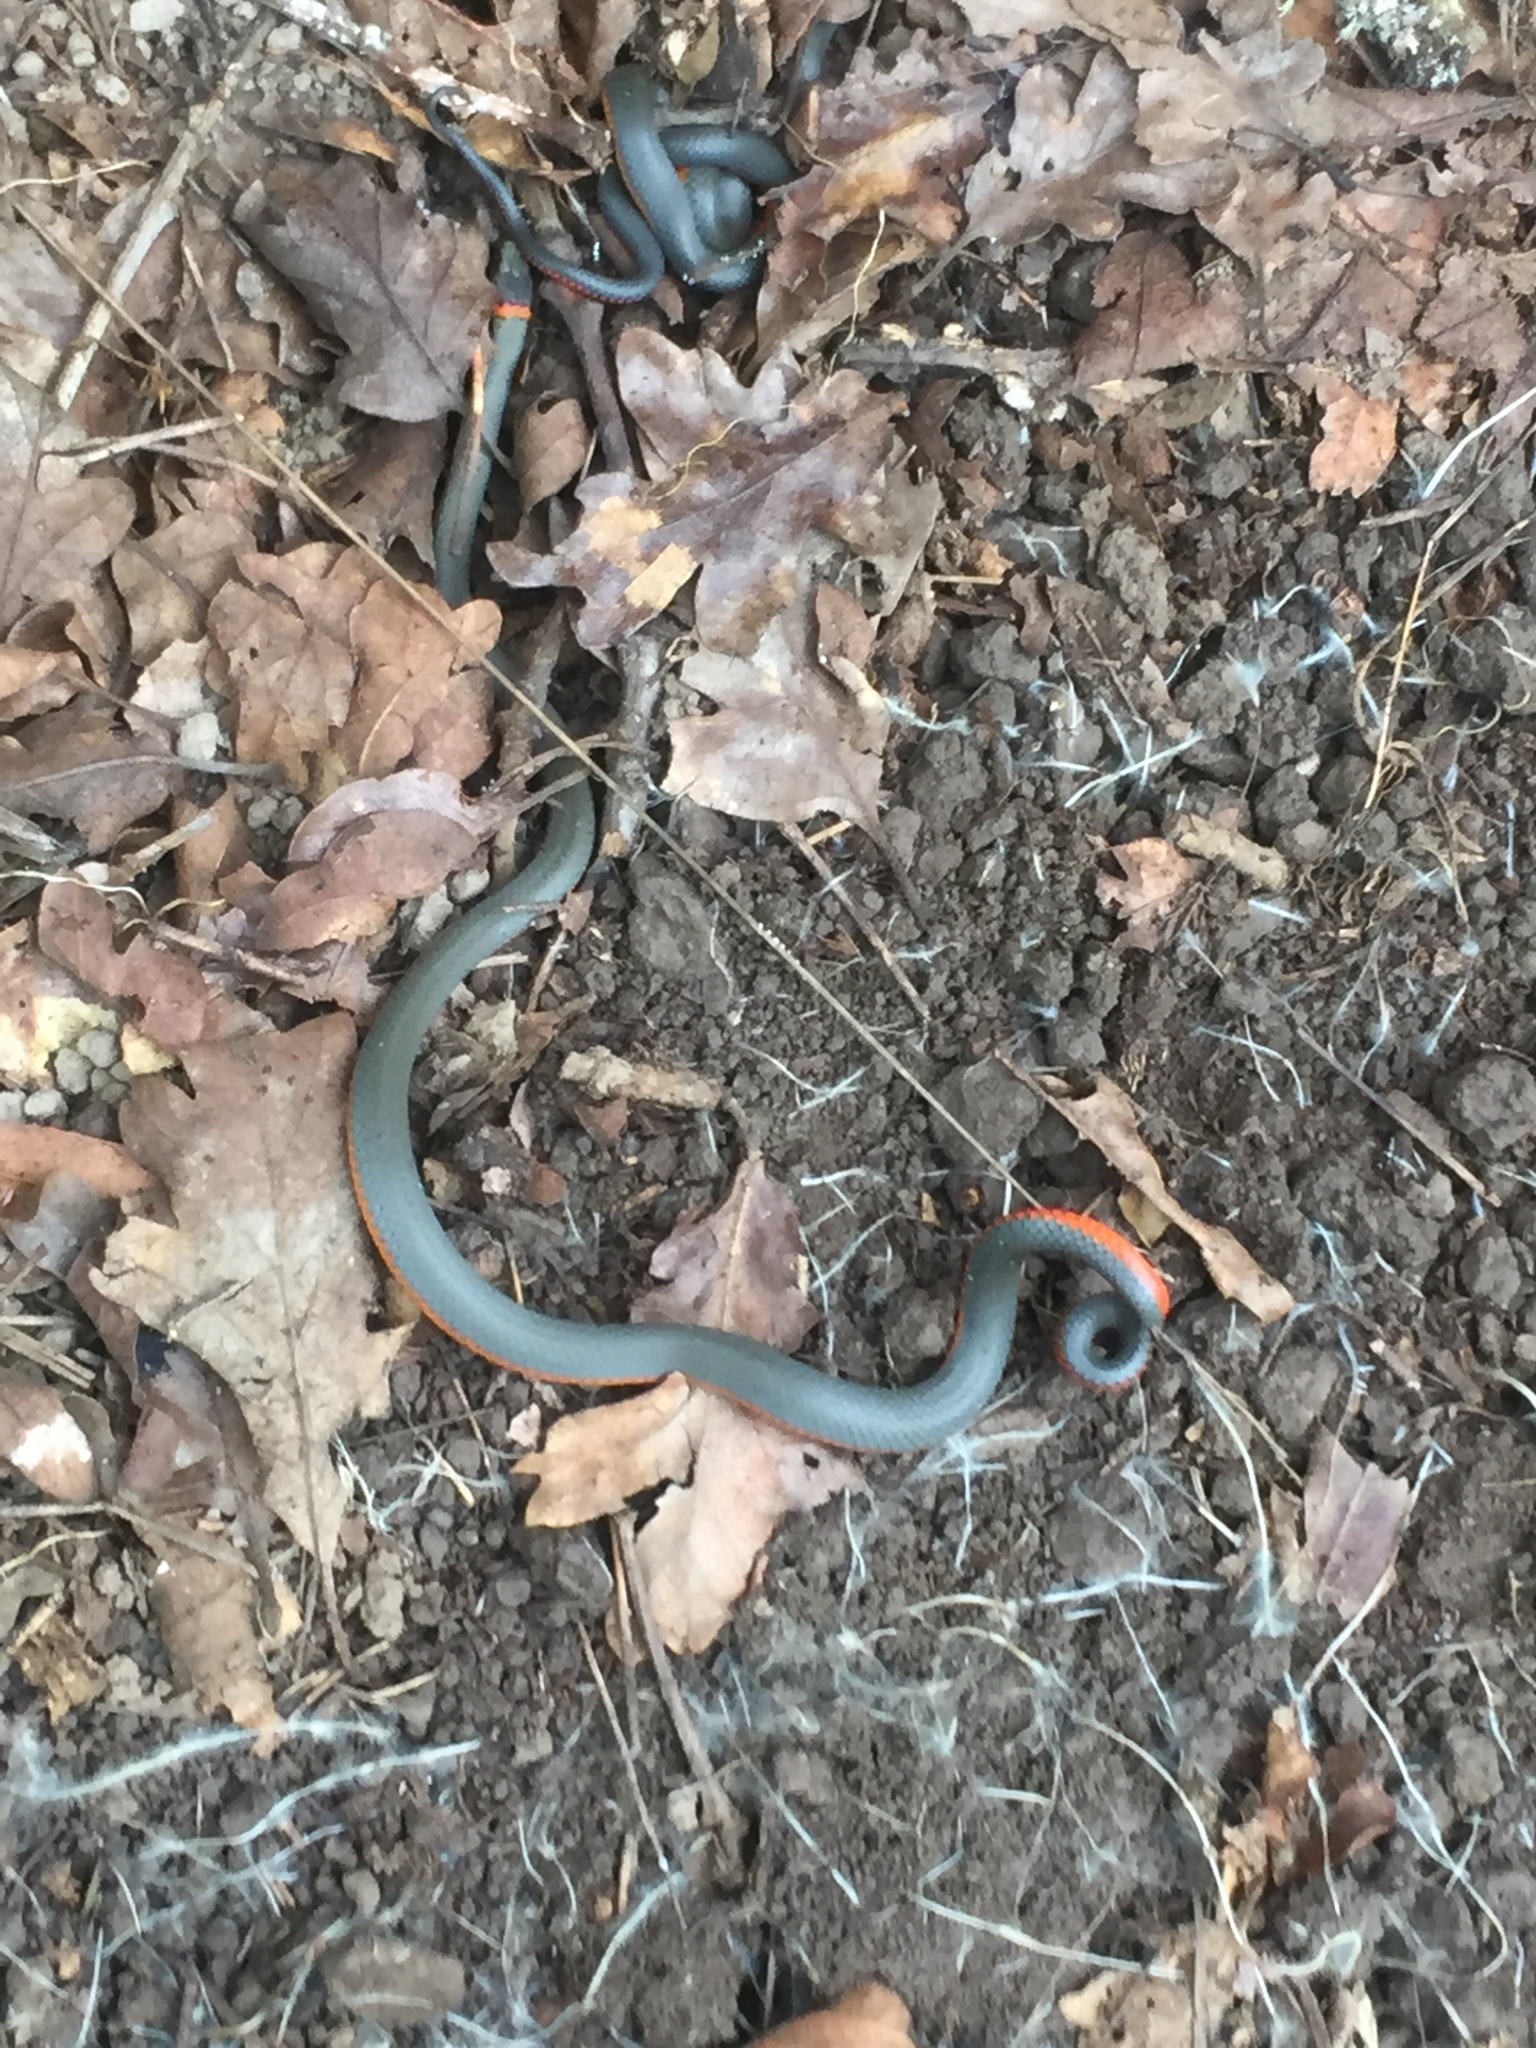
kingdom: Animalia
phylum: Chordata
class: Squamata
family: Colubridae
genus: Diadophis
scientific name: Diadophis punctatus
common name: Ringneck snake
